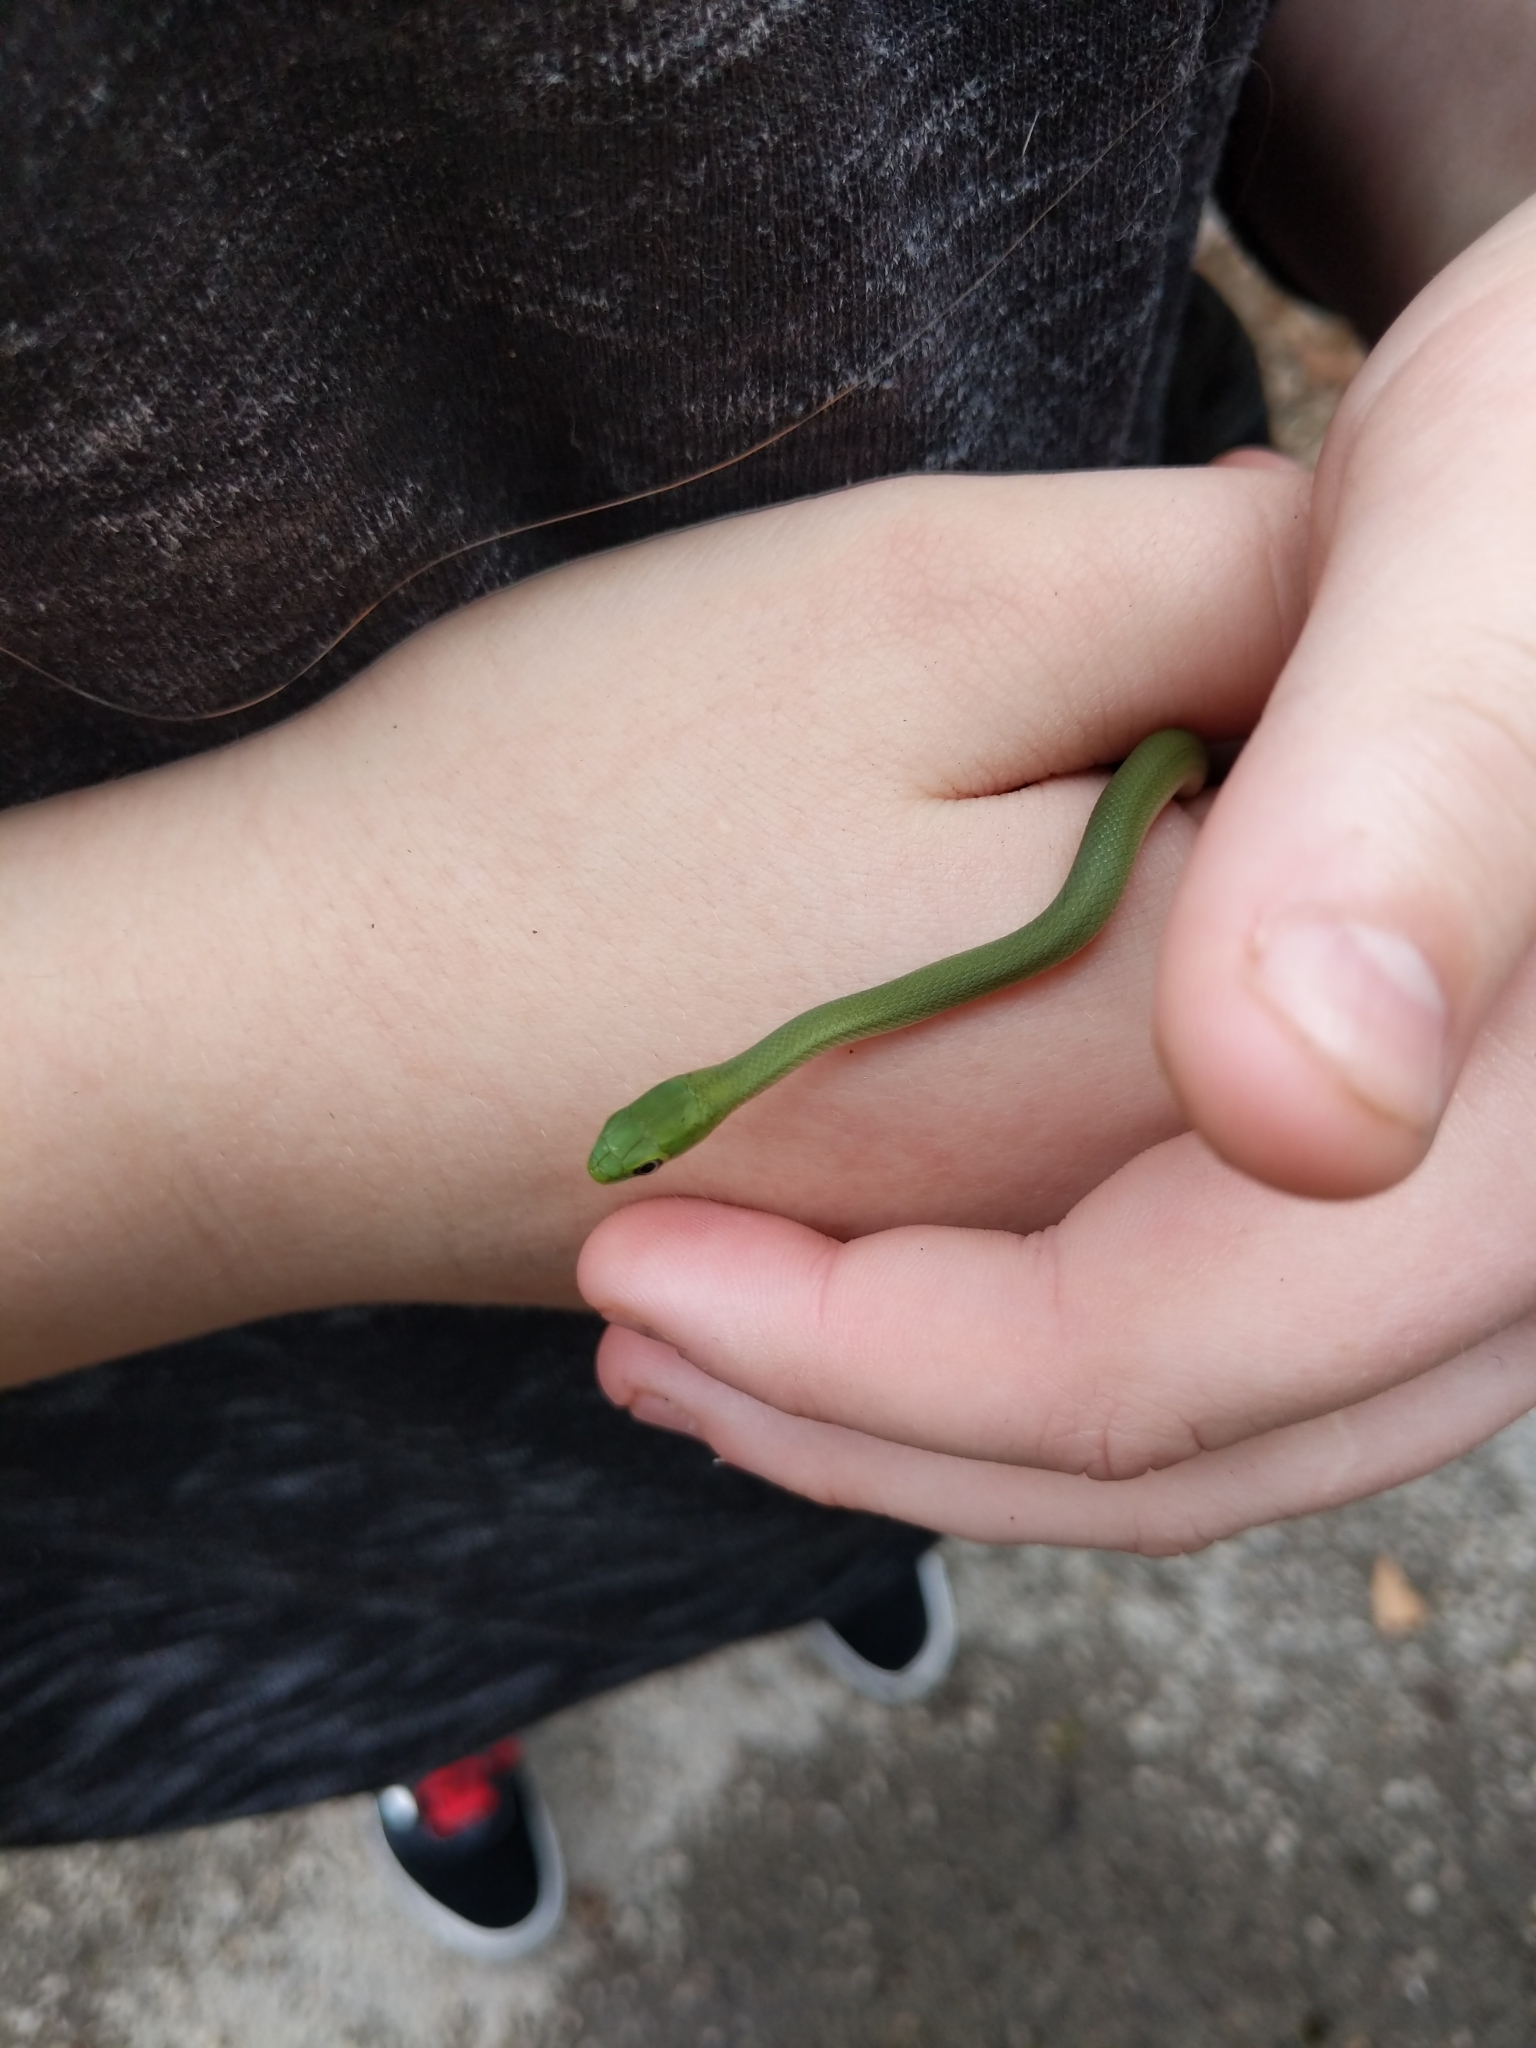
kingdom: Animalia
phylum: Chordata
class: Squamata
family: Colubridae
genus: Opheodrys
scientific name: Opheodrys aestivus
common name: Rough greensnake
